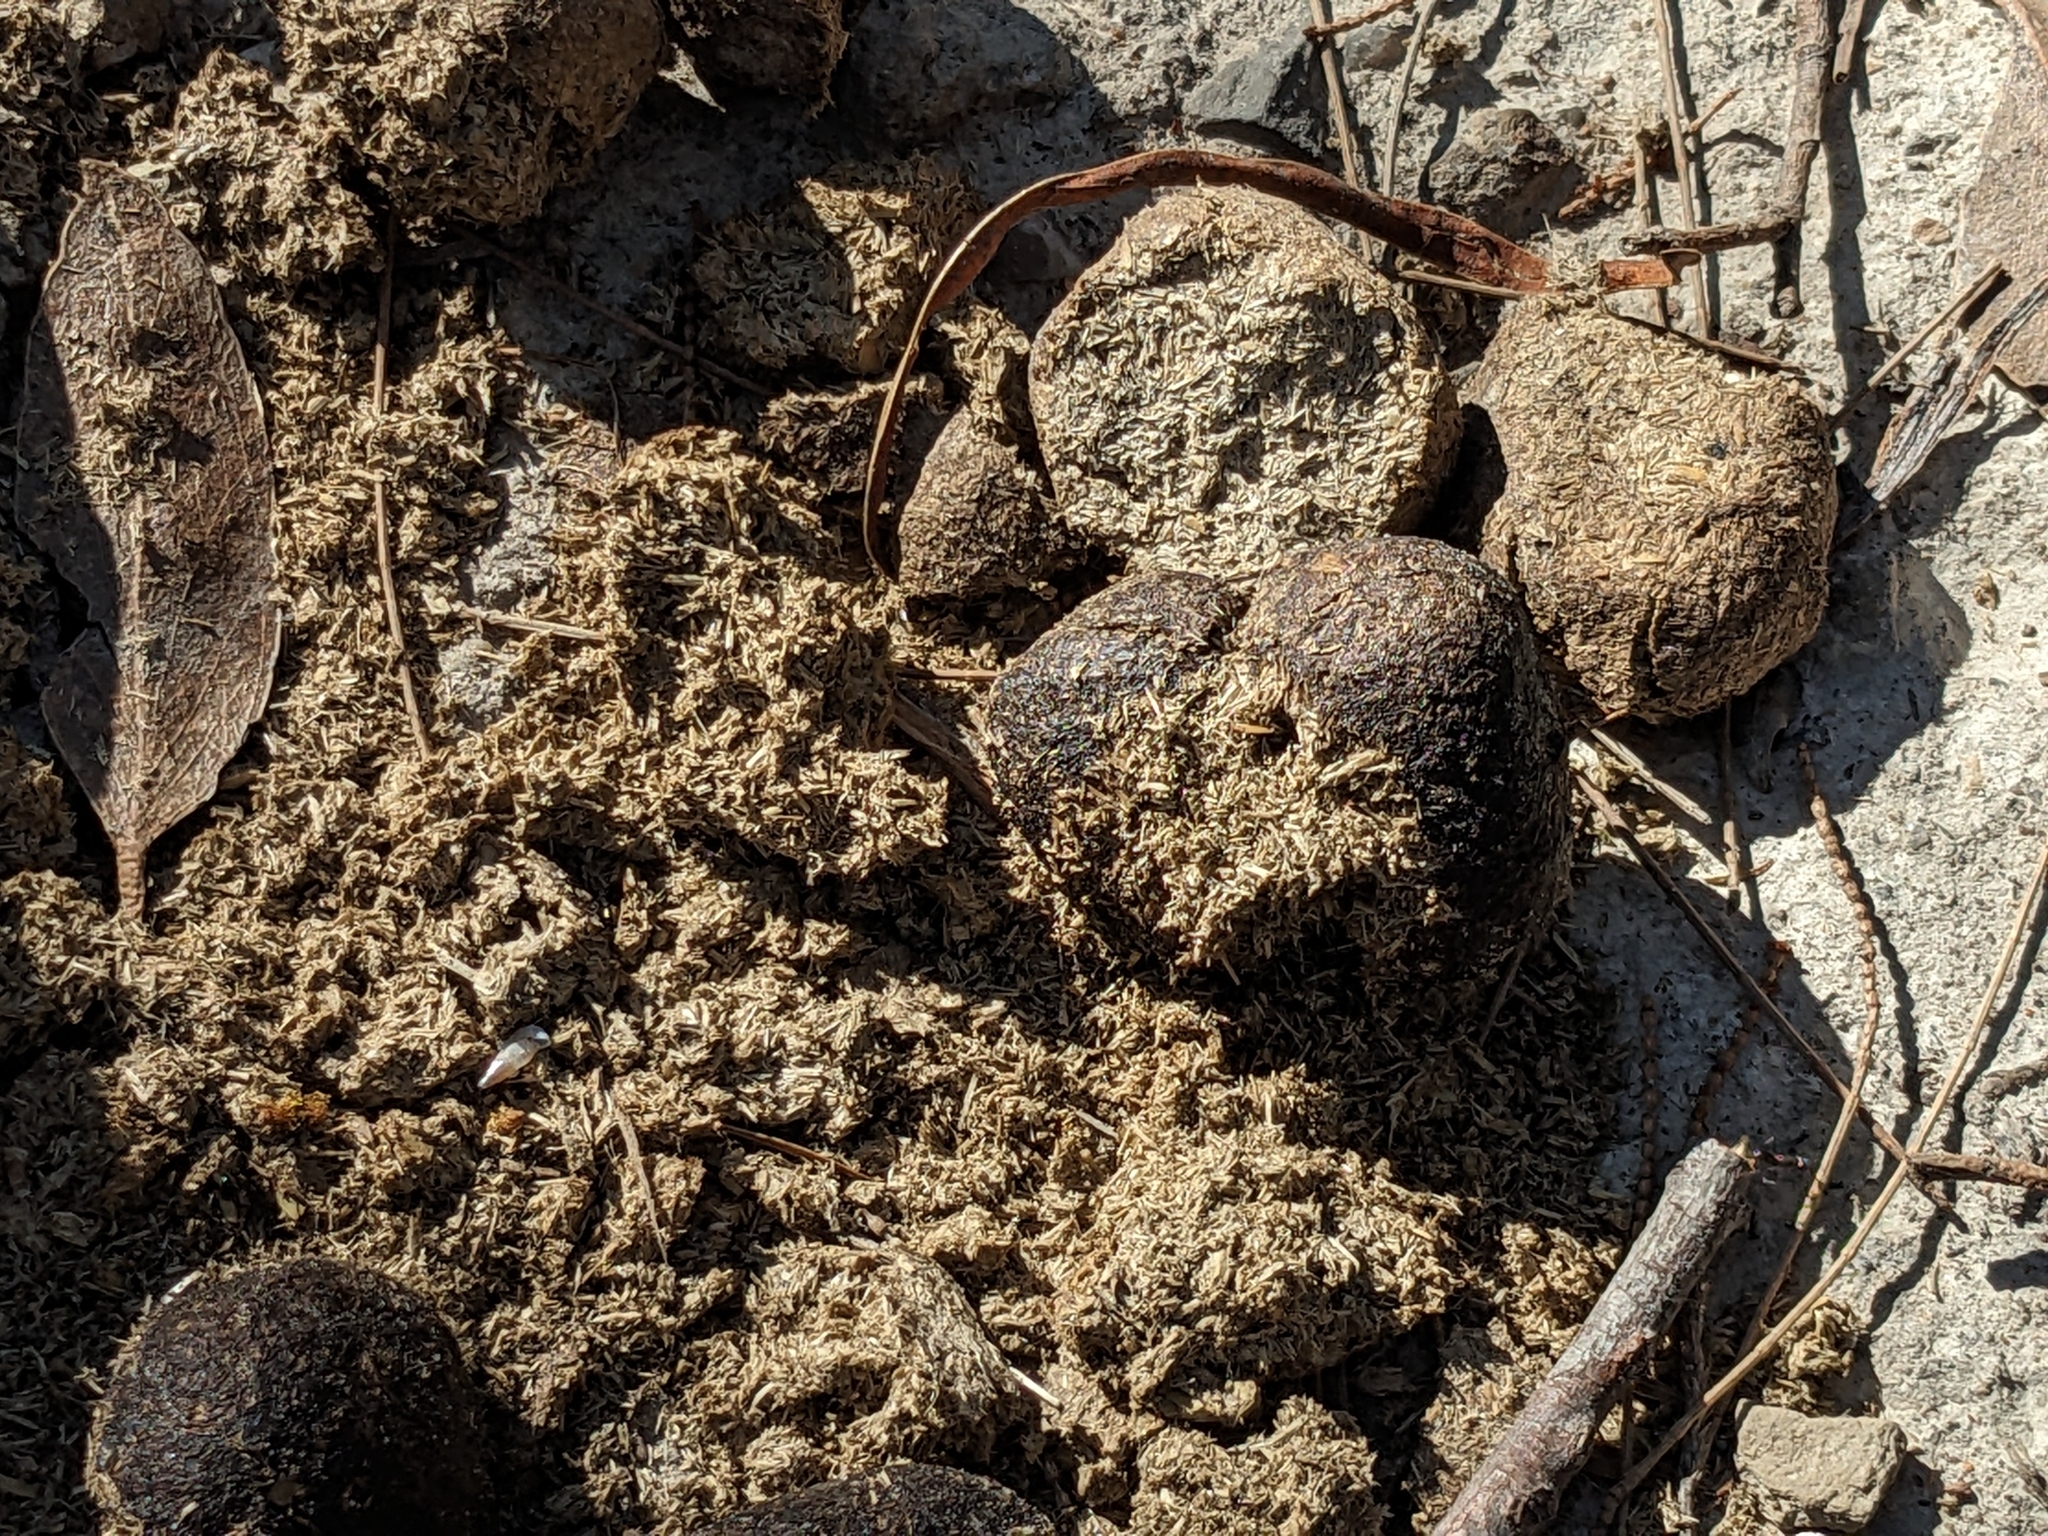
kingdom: Animalia
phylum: Chordata
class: Mammalia
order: Diprotodontia
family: Vombatidae
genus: Vombatus
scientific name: Vombatus ursinus
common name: Common wombat
